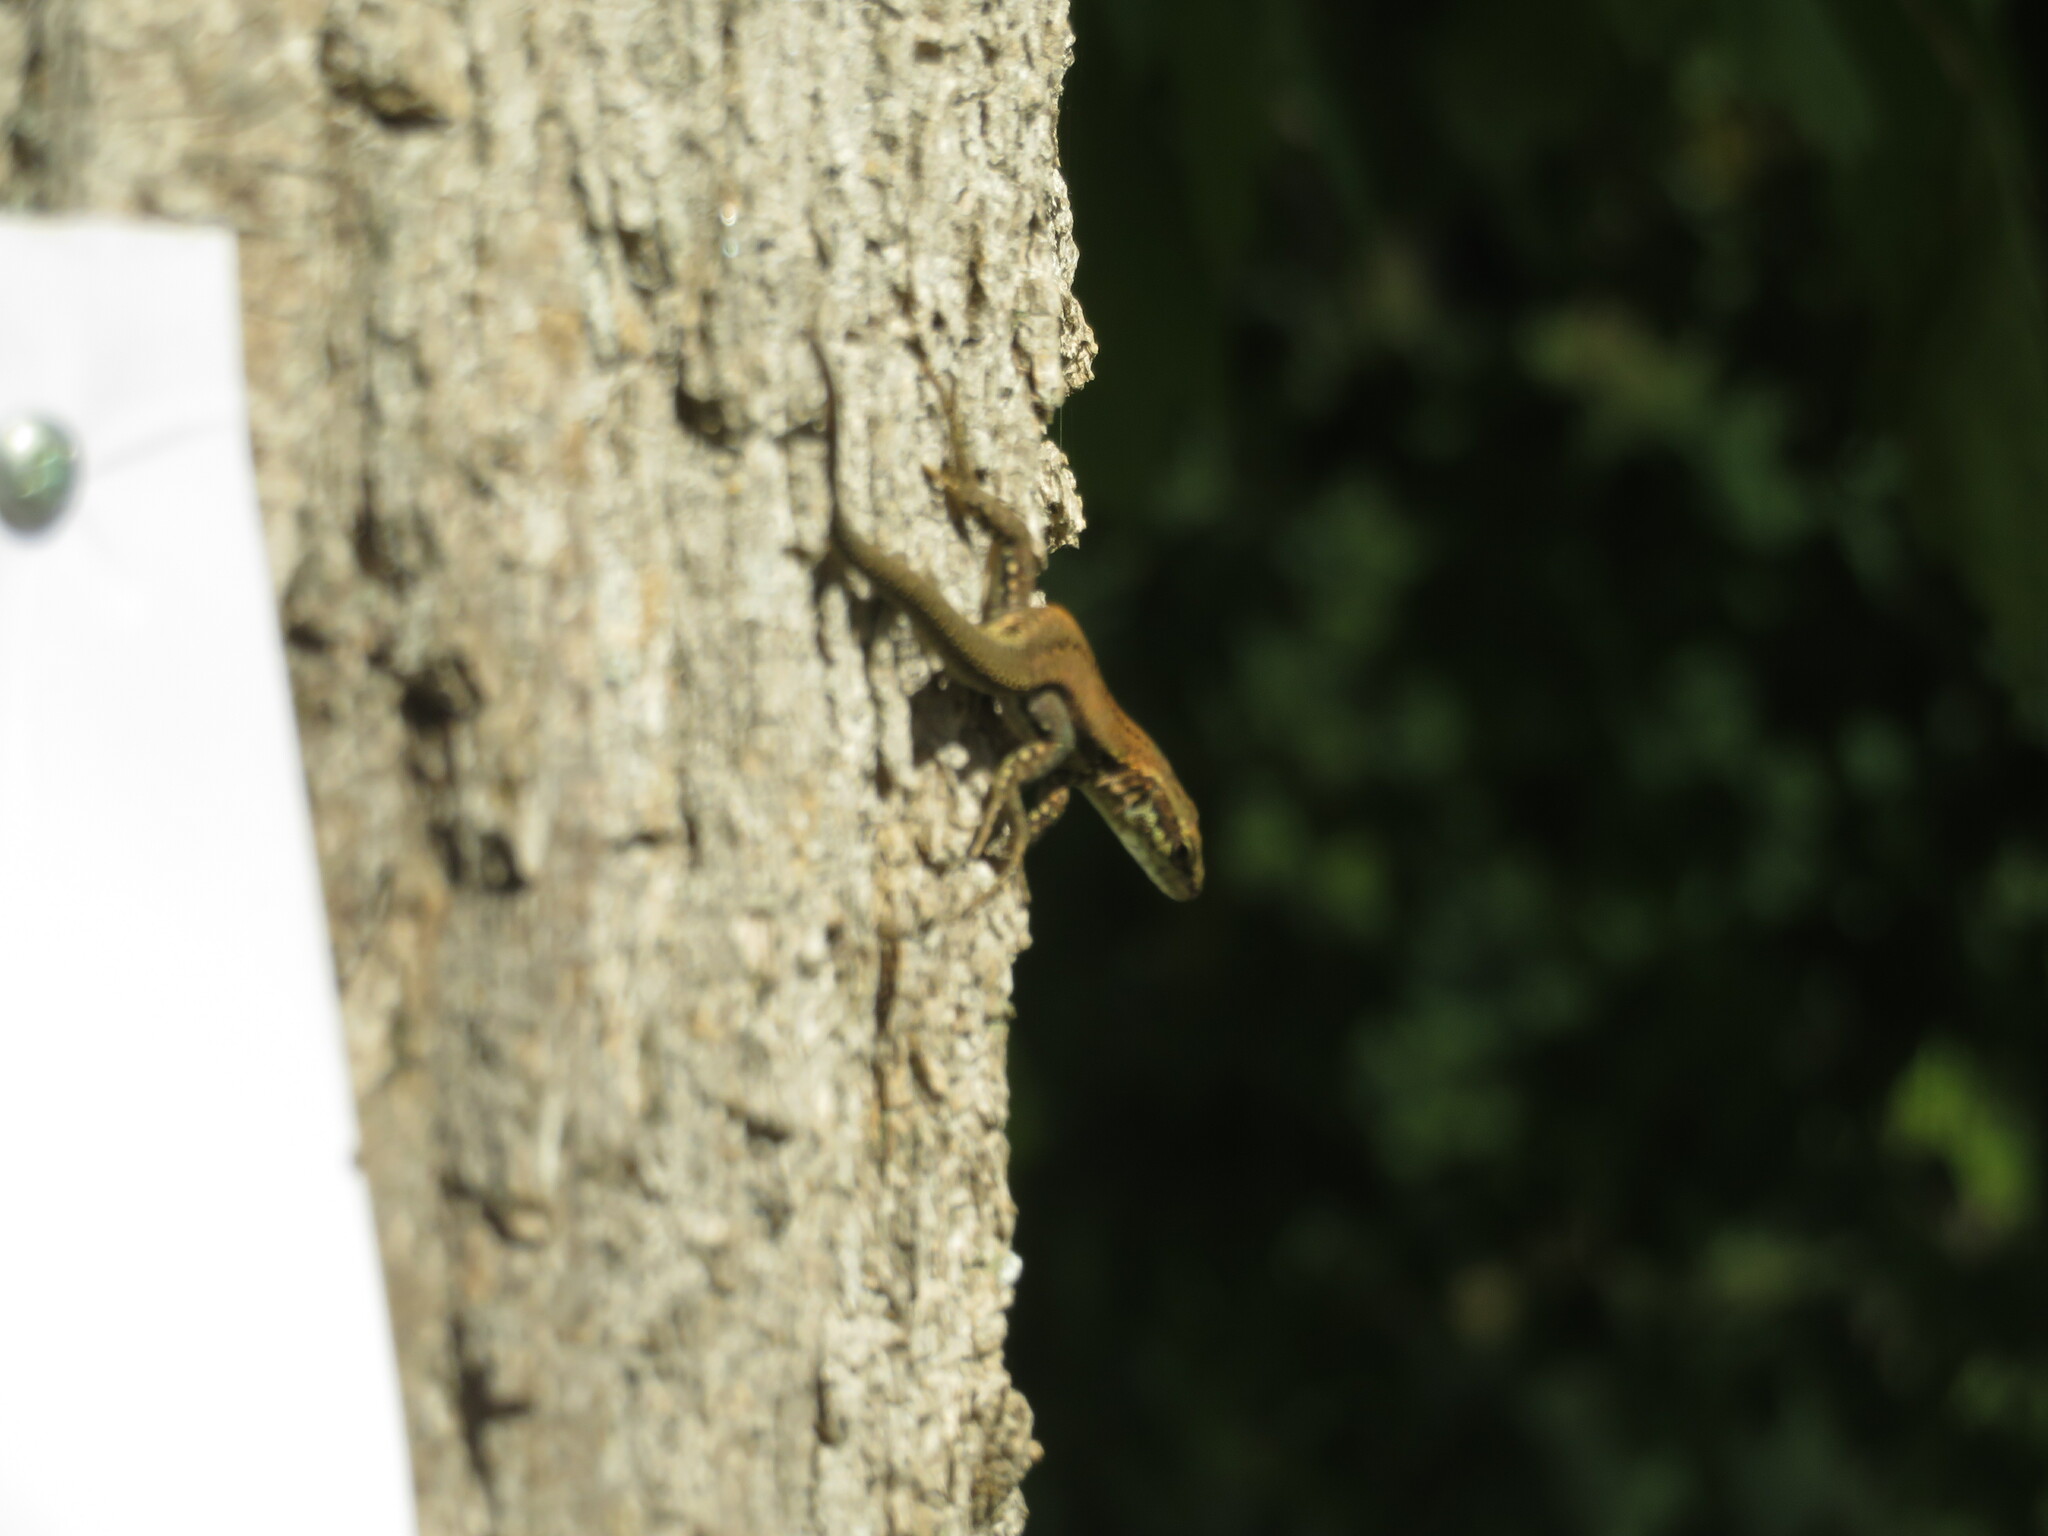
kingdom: Animalia
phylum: Chordata
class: Squamata
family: Lacertidae
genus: Podarcis
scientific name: Podarcis muralis
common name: Common wall lizard
